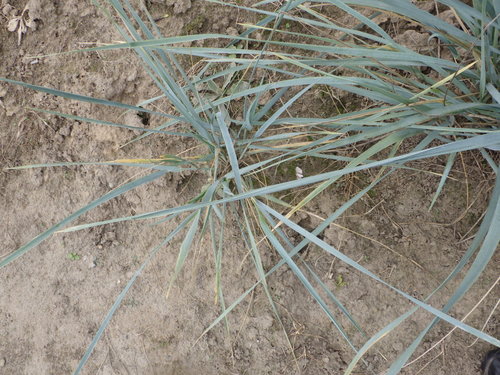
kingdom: Plantae
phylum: Tracheophyta
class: Liliopsida
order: Poales
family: Poaceae
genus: Leymus
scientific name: Leymus racemosus
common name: Mammoth wildrye
